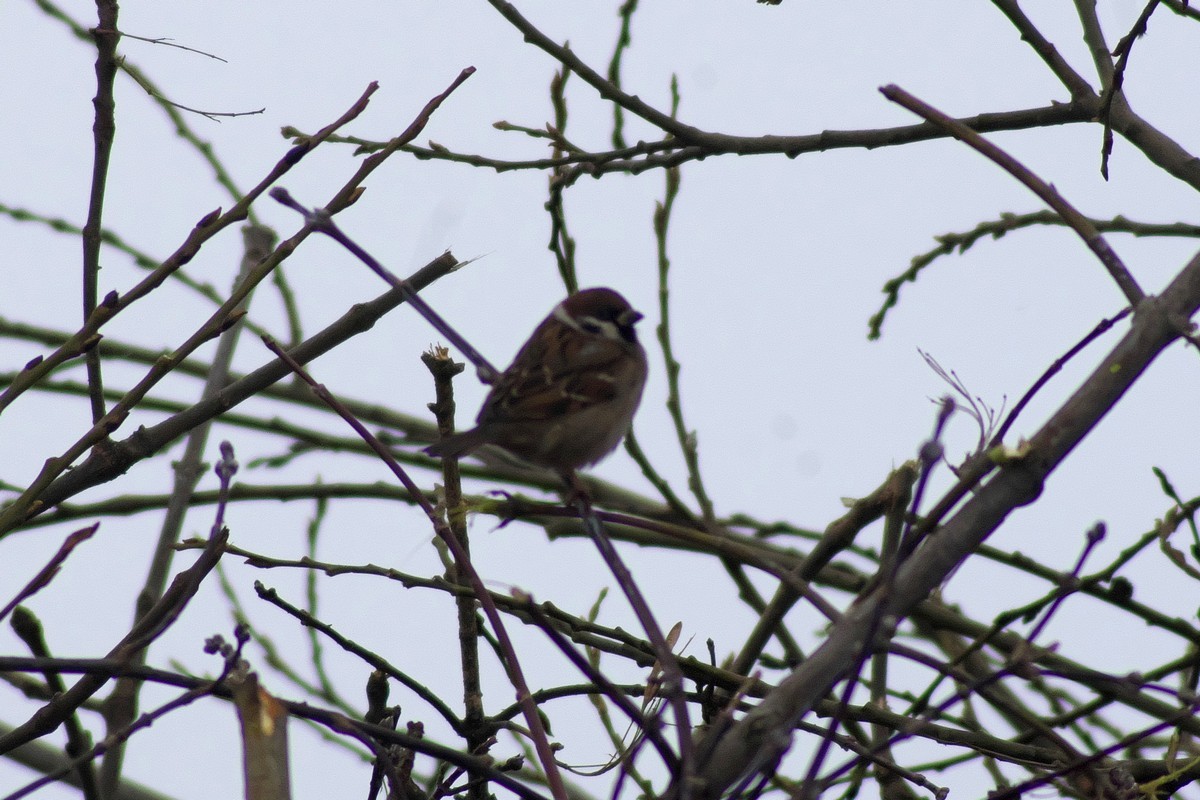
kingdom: Animalia
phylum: Chordata
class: Aves
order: Passeriformes
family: Passeridae
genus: Passer
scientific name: Passer montanus
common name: Eurasian tree sparrow
